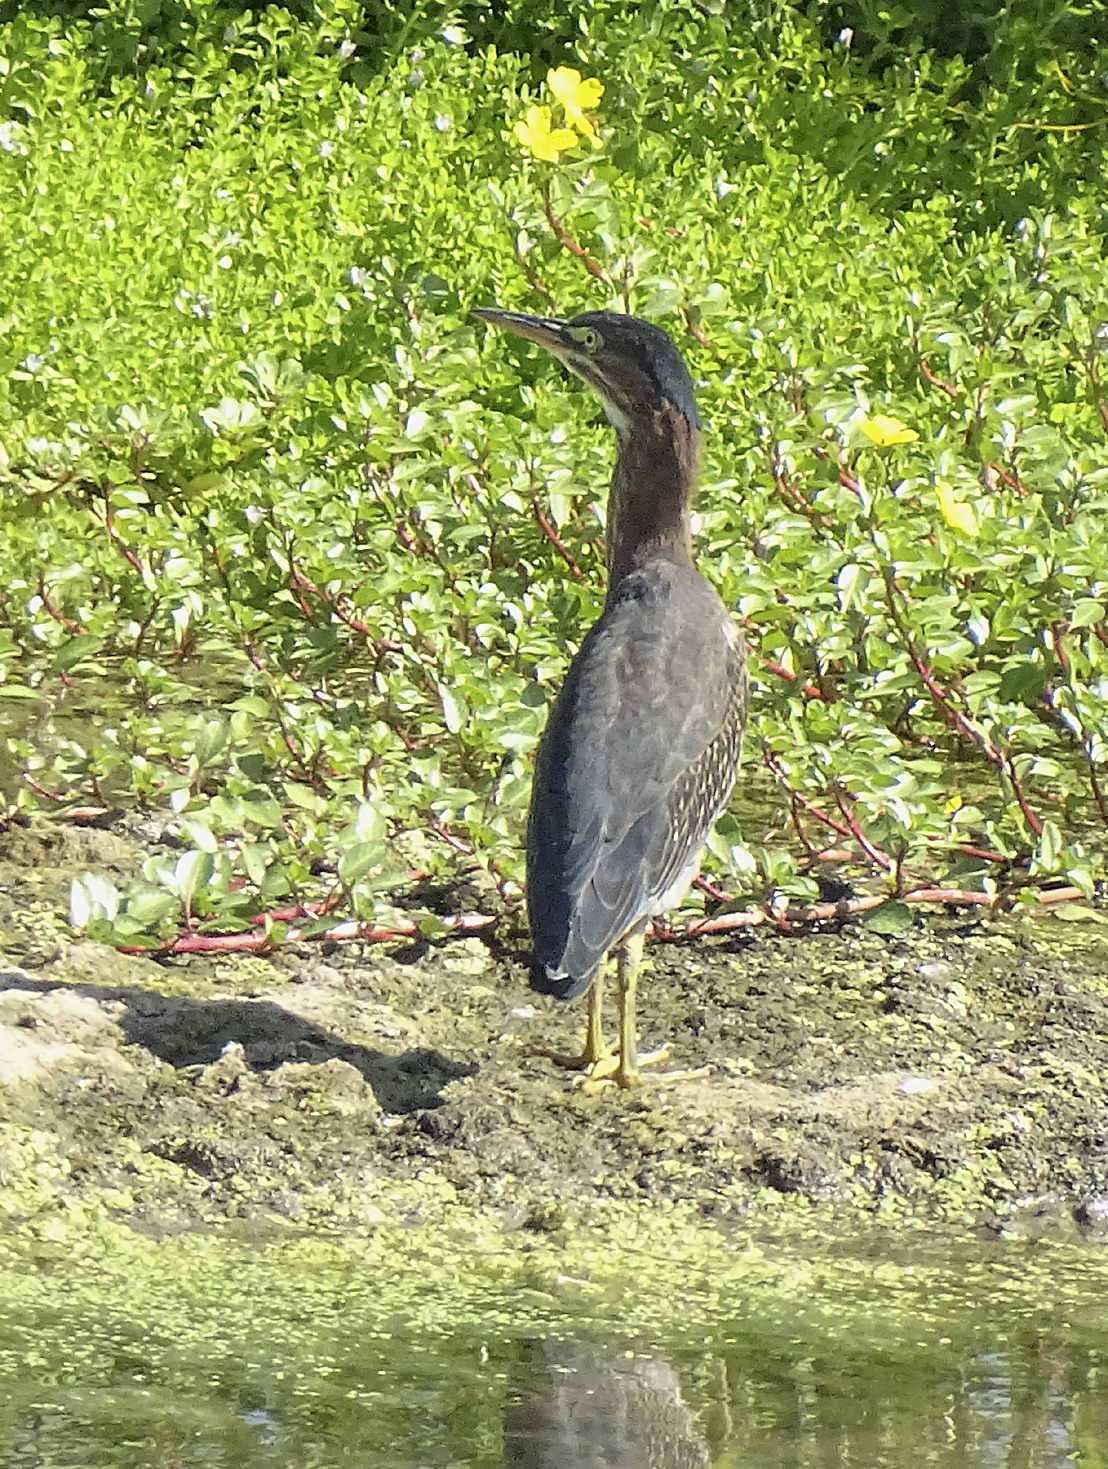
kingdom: Animalia
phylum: Chordata
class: Aves
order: Pelecaniformes
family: Ardeidae
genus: Butorides
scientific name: Butorides virescens
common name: Green heron
